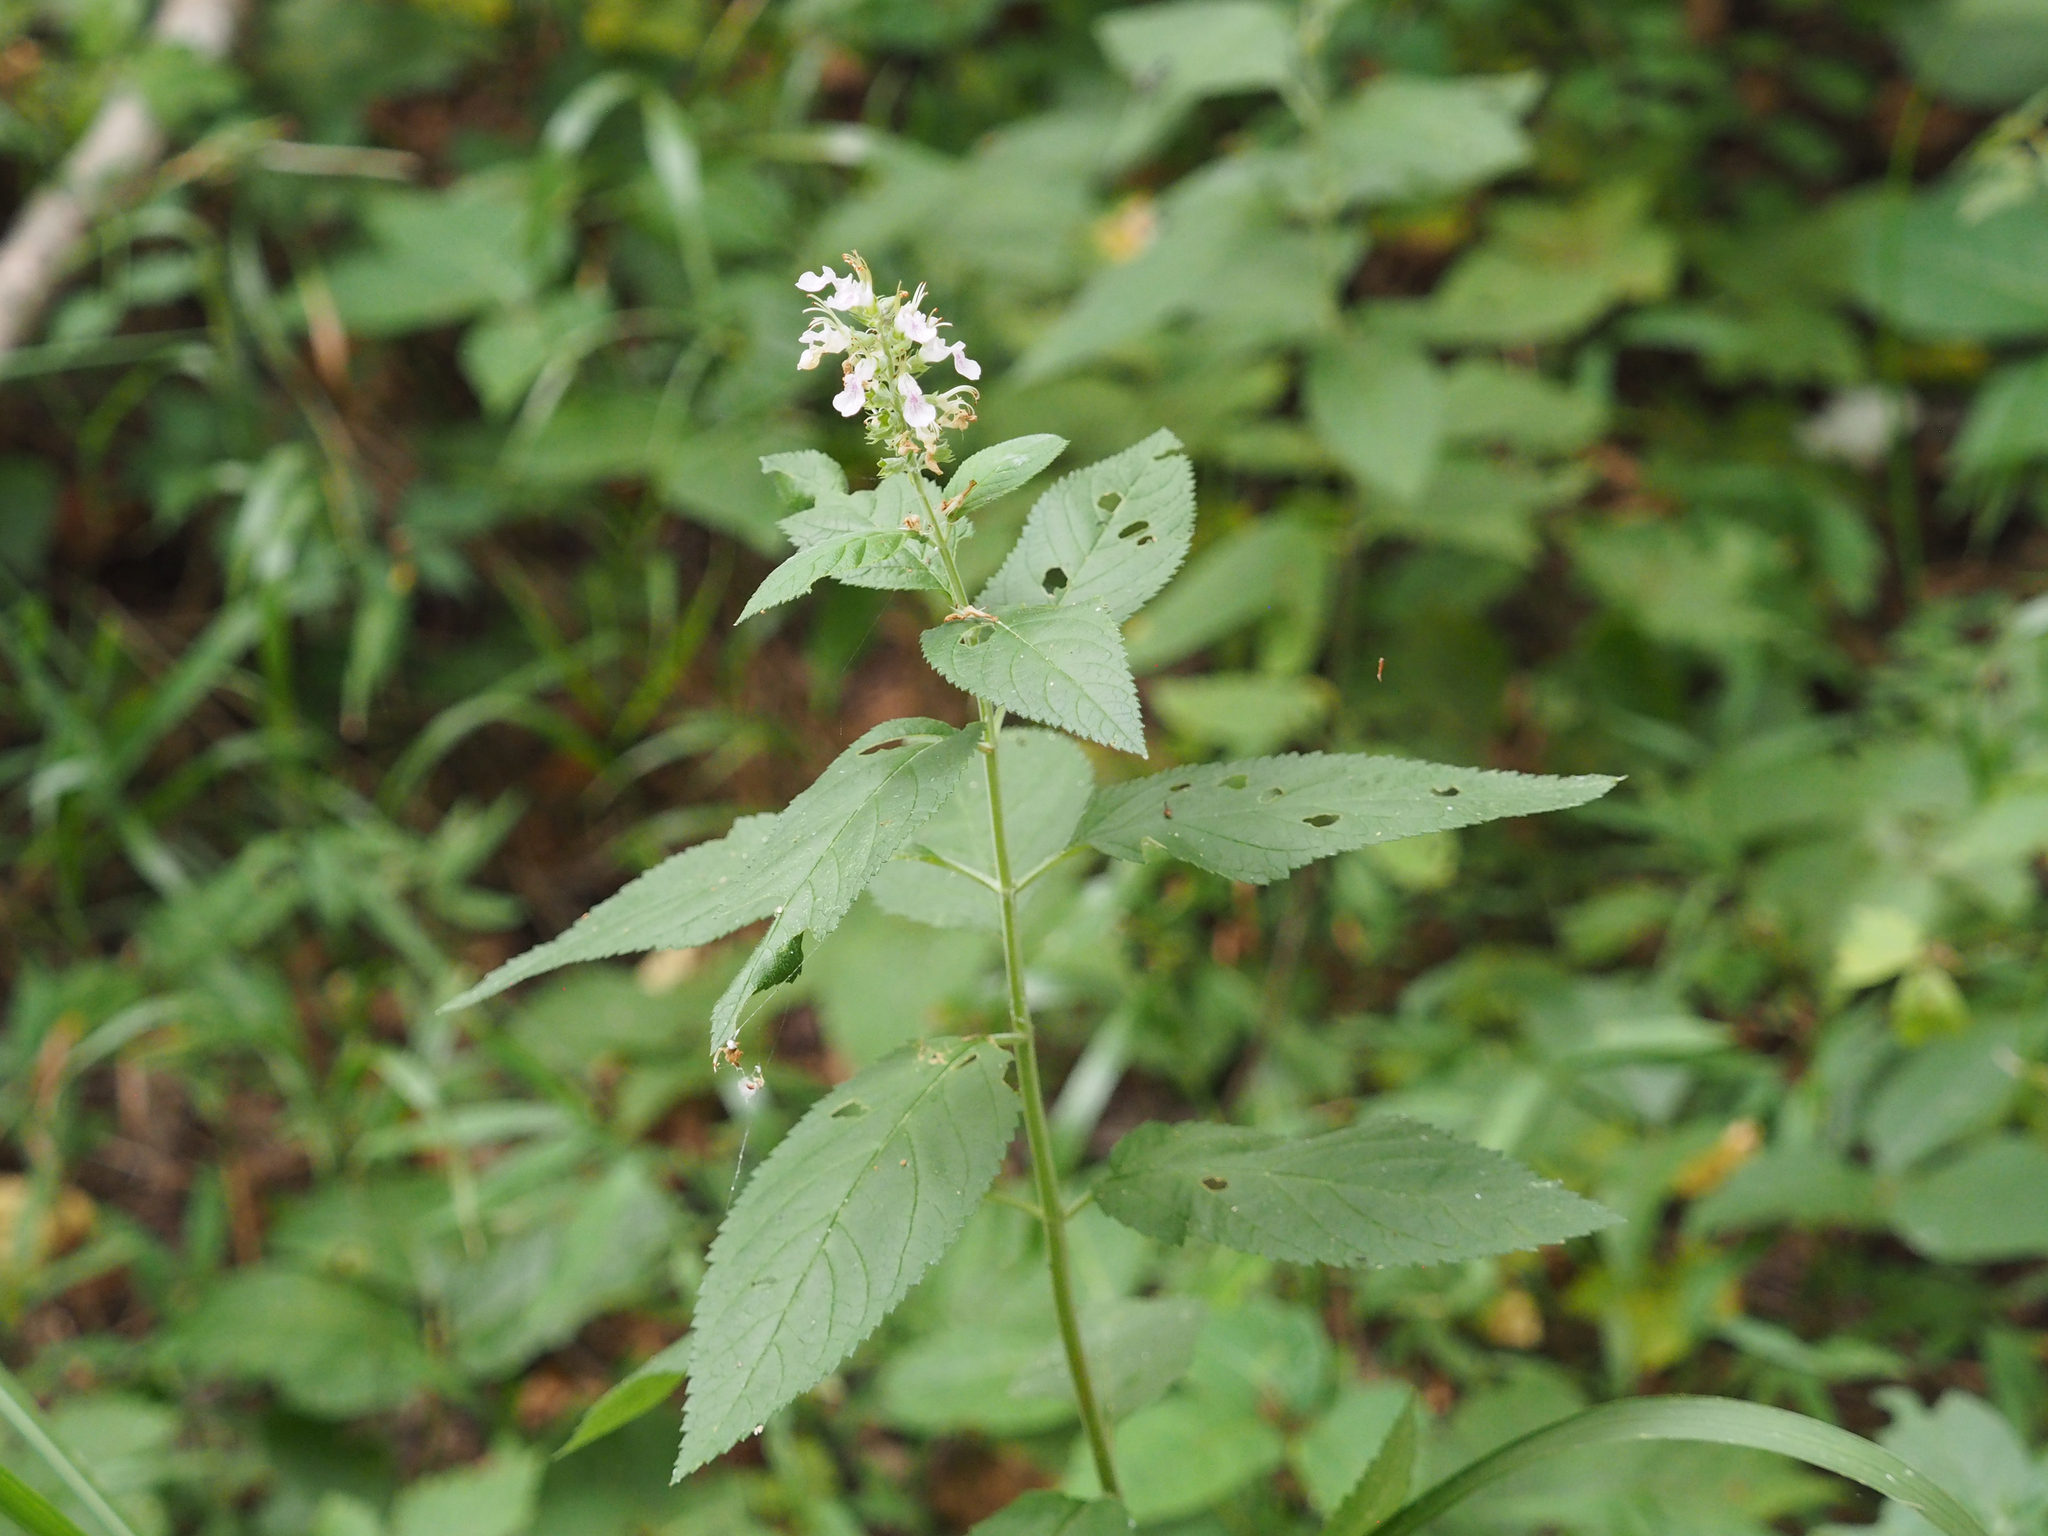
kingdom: Plantae
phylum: Tracheophyta
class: Magnoliopsida
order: Lamiales
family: Lamiaceae
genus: Teucrium
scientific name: Teucrium canadense
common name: American germander
